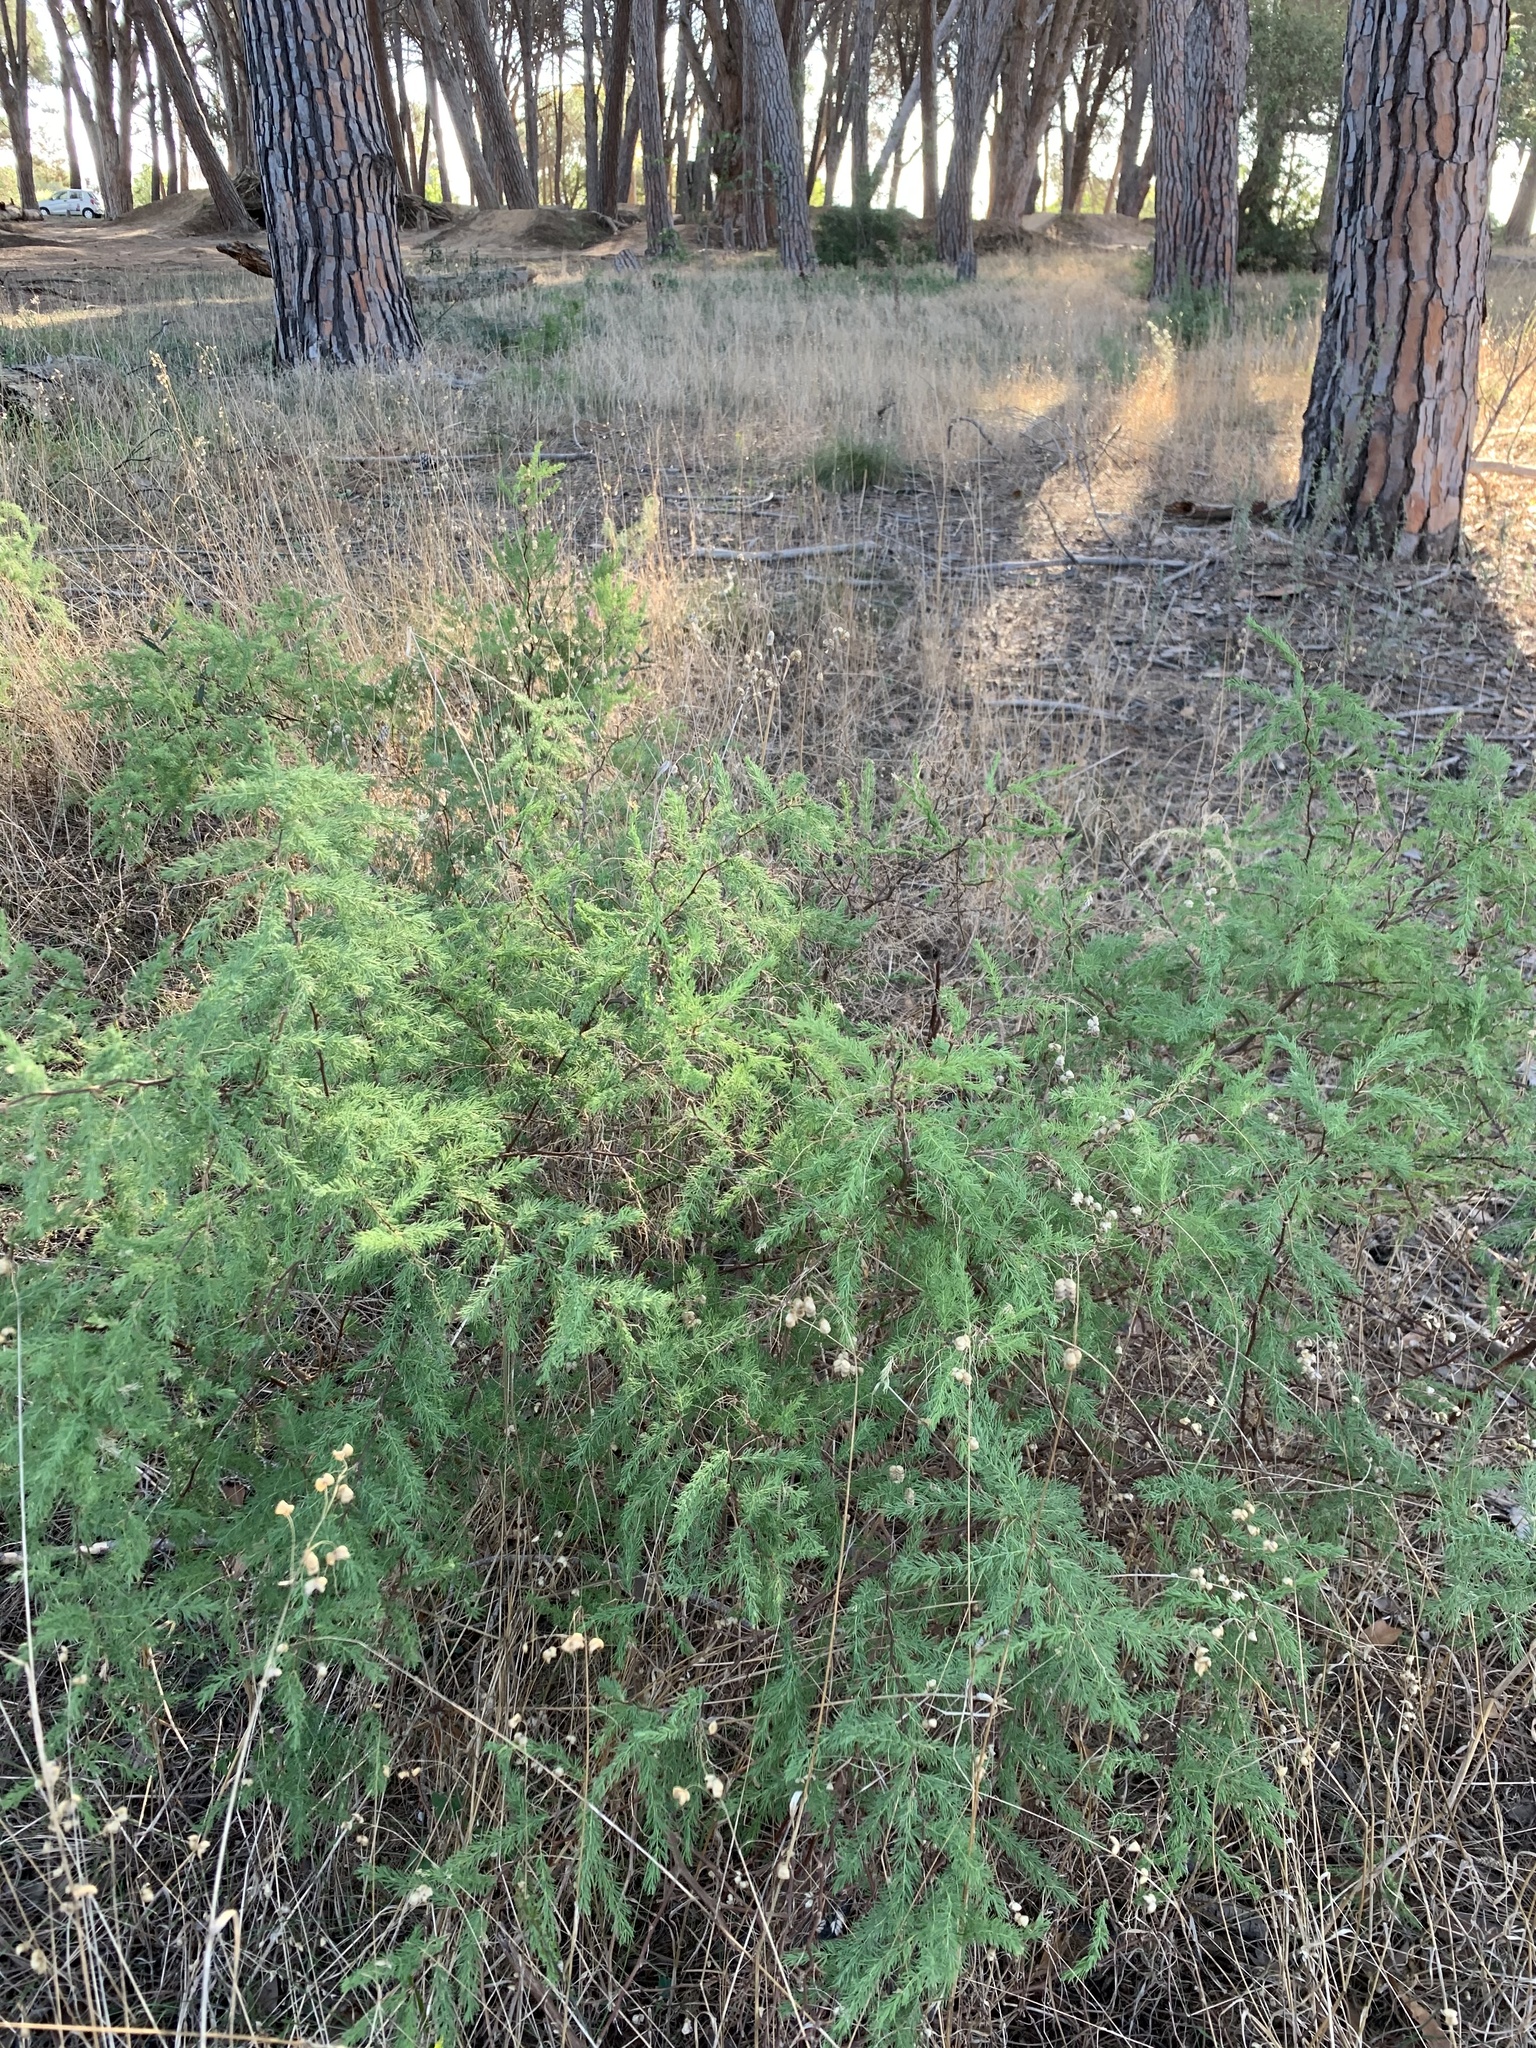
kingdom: Plantae
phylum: Tracheophyta
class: Liliopsida
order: Asparagales
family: Asparagaceae
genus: Asparagus
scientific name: Asparagus rubicundus
